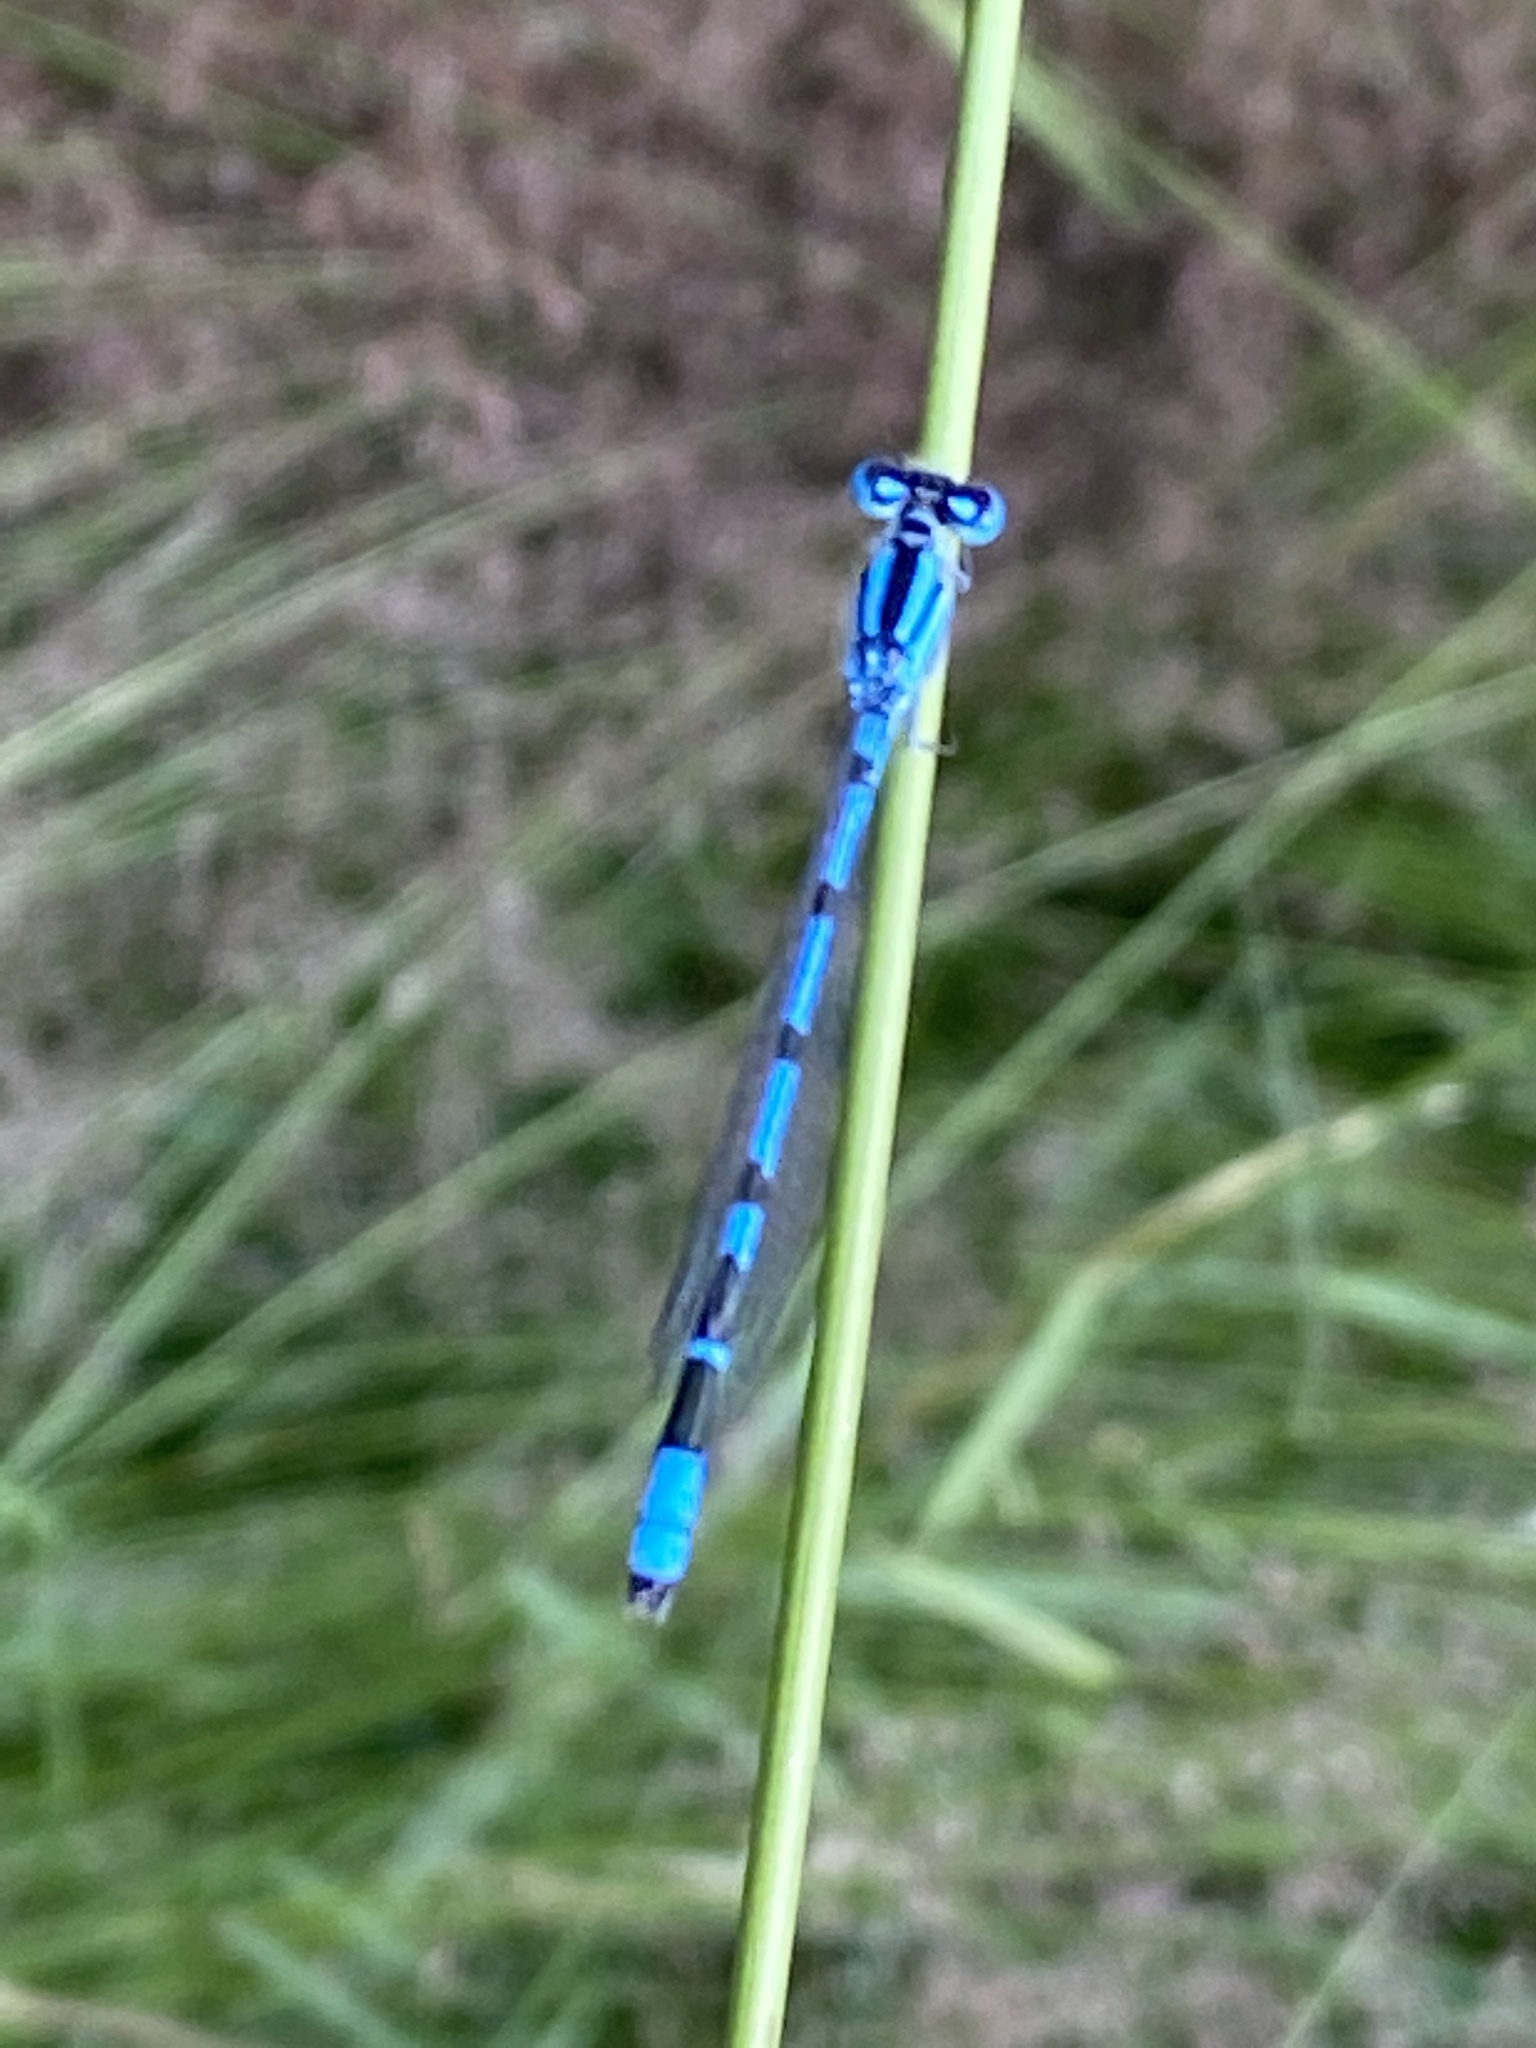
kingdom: Animalia
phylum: Arthropoda
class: Insecta
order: Odonata
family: Coenagrionidae
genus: Enallagma
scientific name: Enallagma cyathigerum
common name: Common blue damselfly
